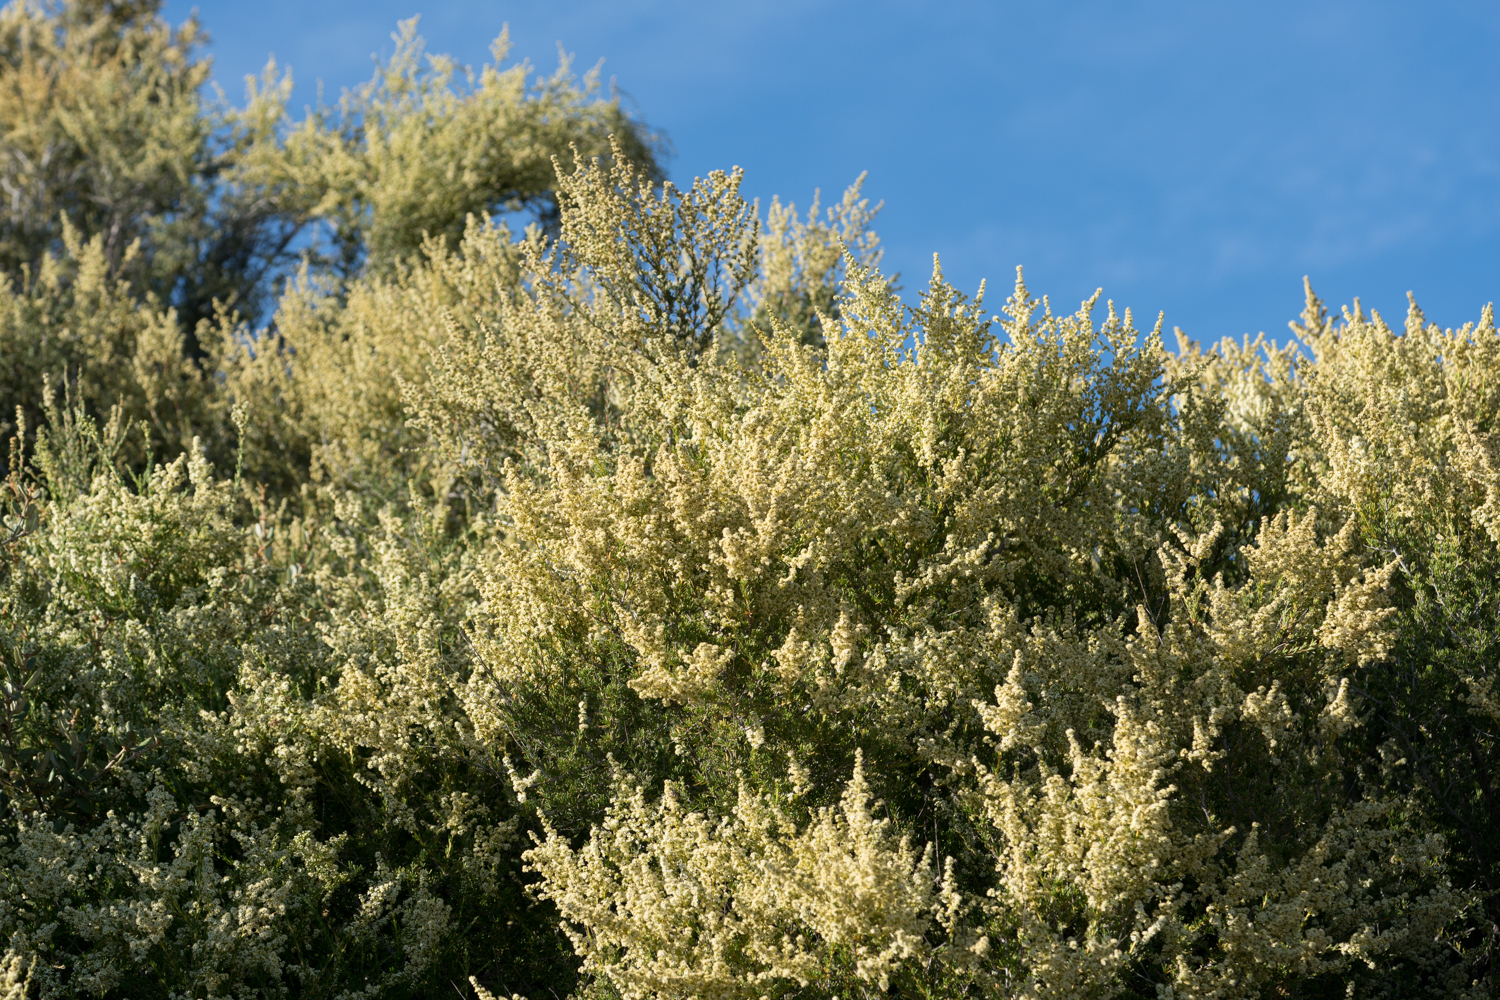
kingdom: Plantae
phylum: Tracheophyta
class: Magnoliopsida
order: Rosales
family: Rosaceae
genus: Adenostoma
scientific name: Adenostoma fasciculatum
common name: Chamise
